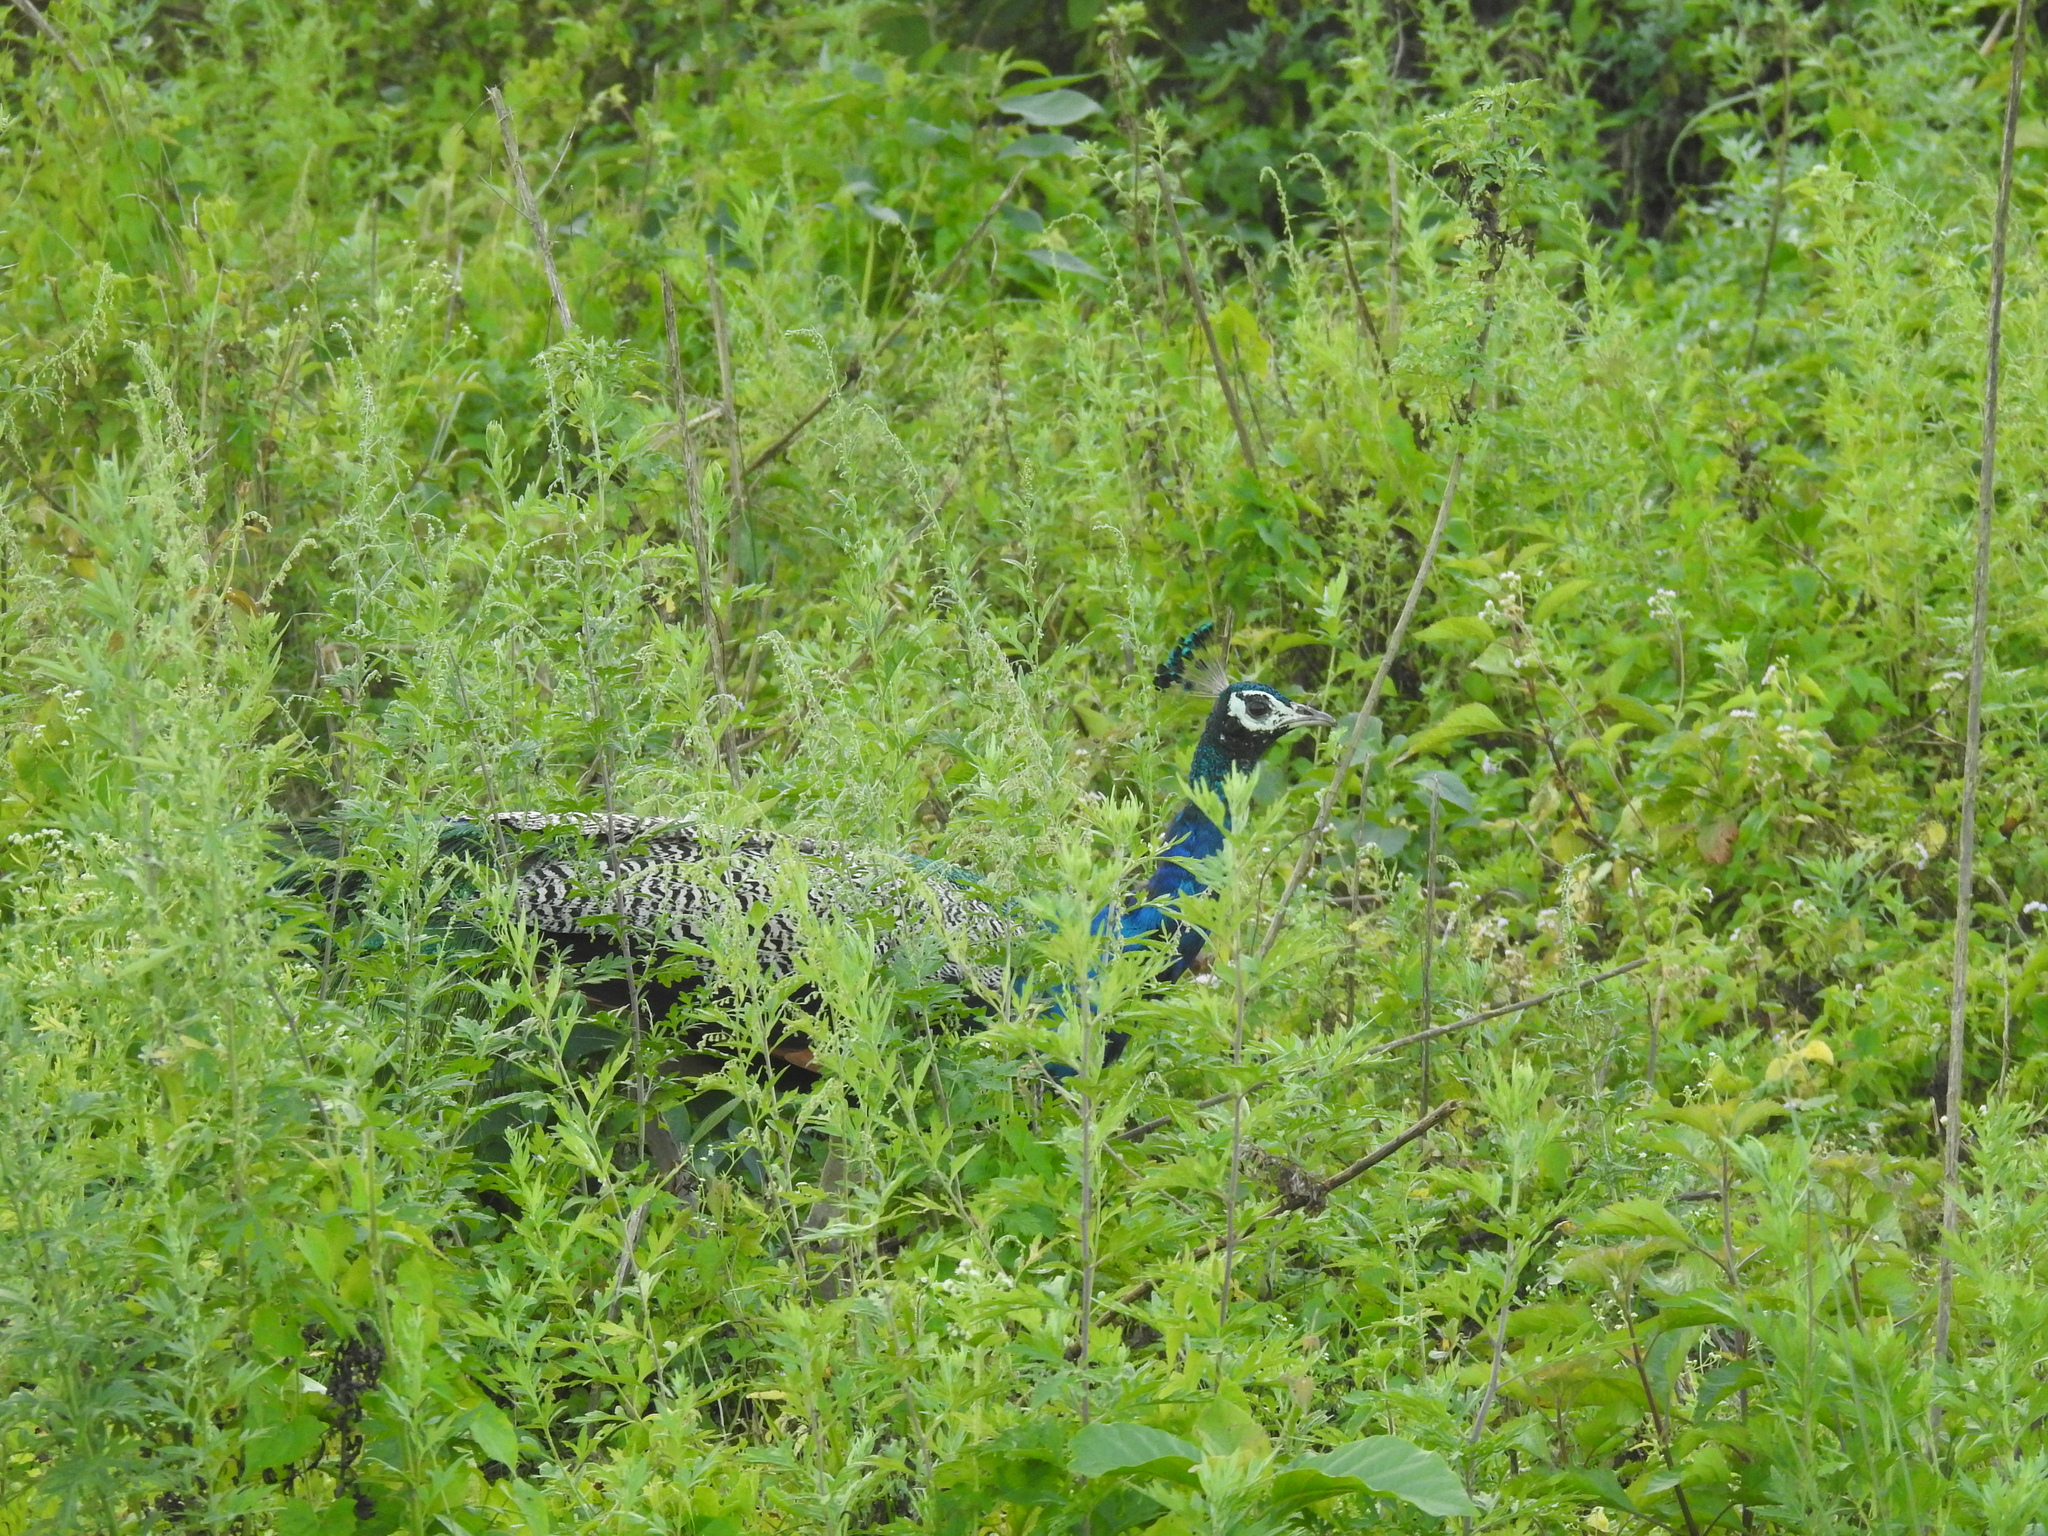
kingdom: Animalia
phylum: Chordata
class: Aves
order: Galliformes
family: Phasianidae
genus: Pavo
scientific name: Pavo cristatus
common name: Indian peafowl
